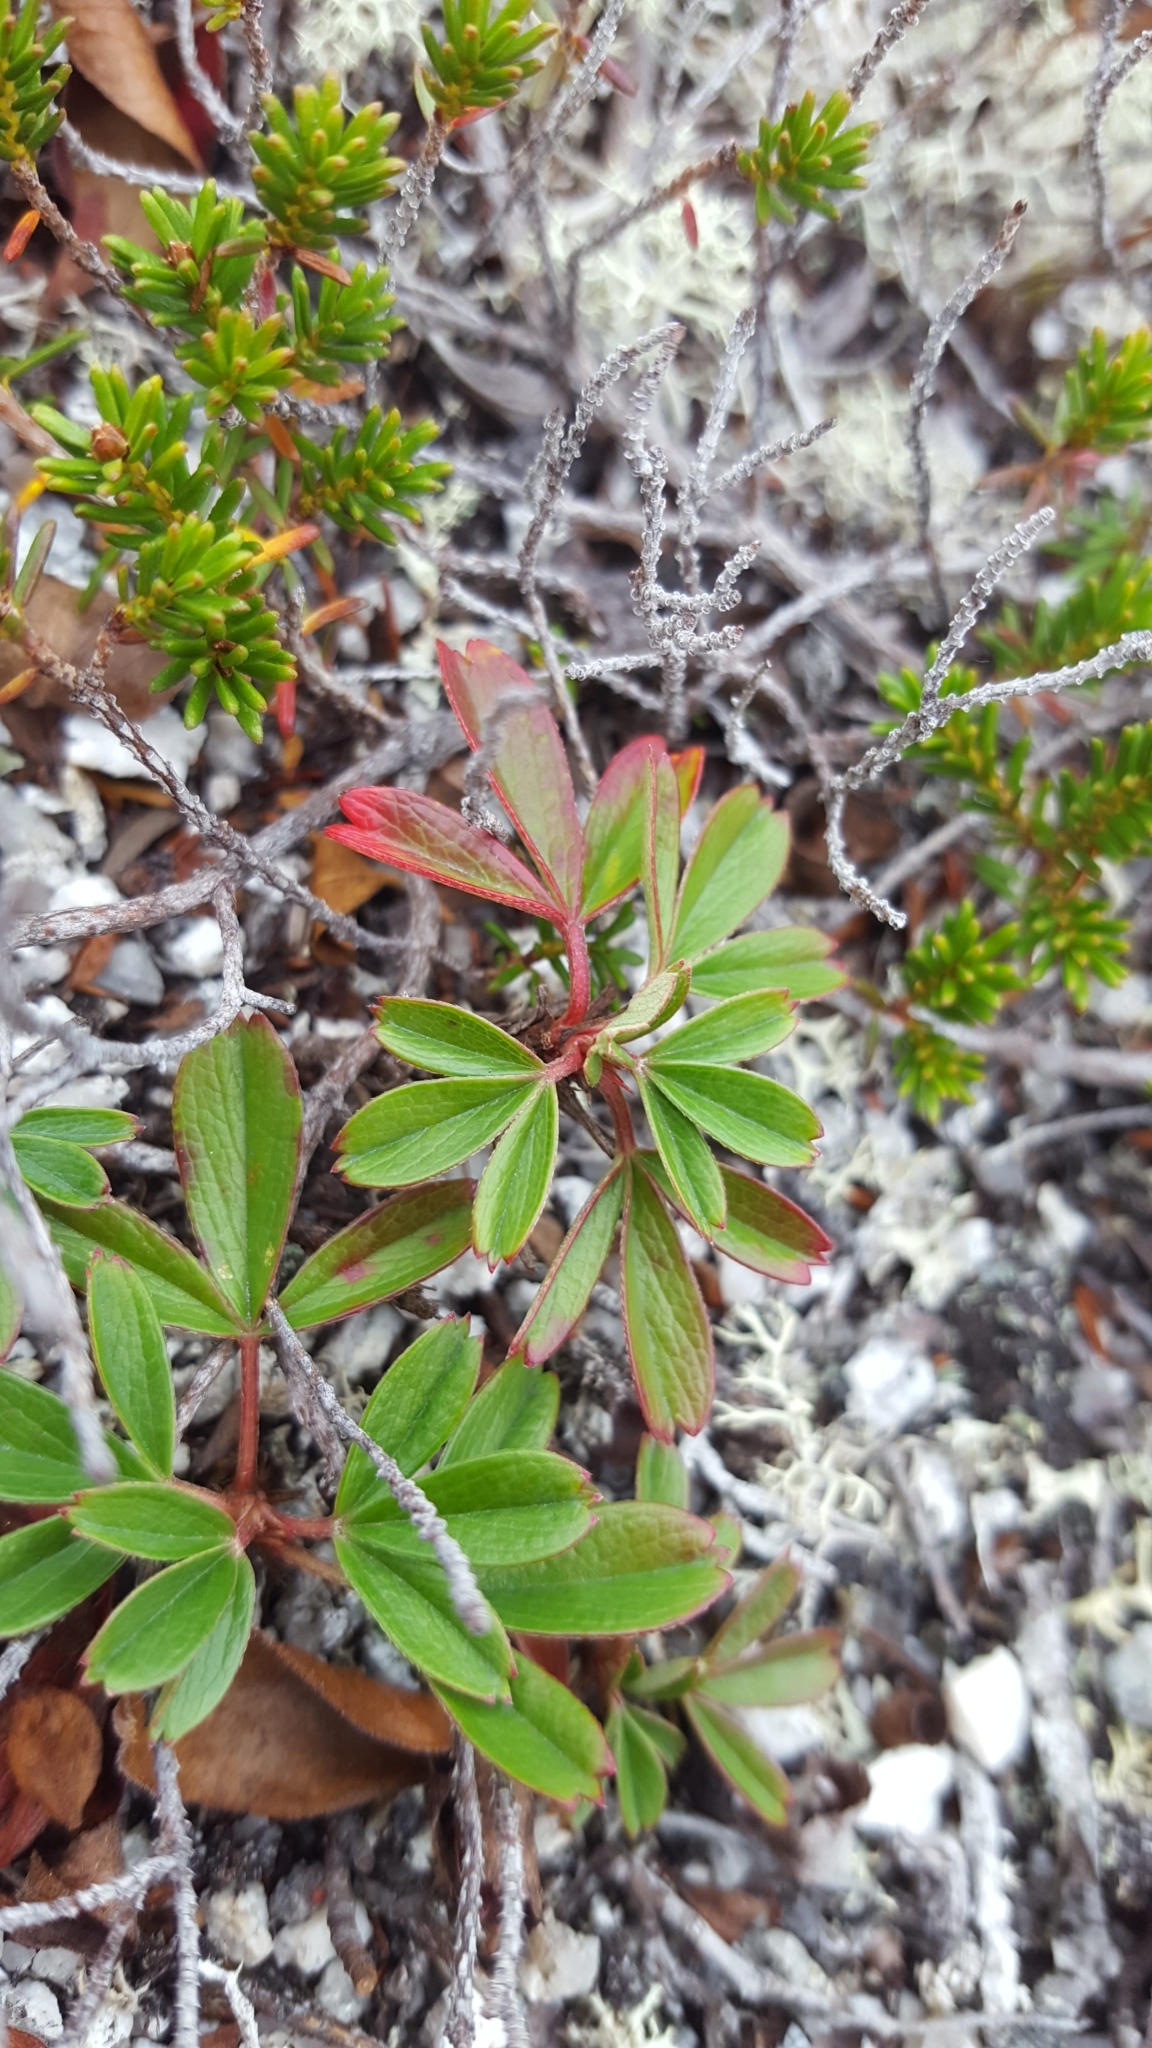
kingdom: Plantae
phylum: Tracheophyta
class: Magnoliopsida
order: Rosales
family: Rosaceae
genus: Sibbaldia
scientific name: Sibbaldia tridentata
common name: Three-toothed cinquefoil
